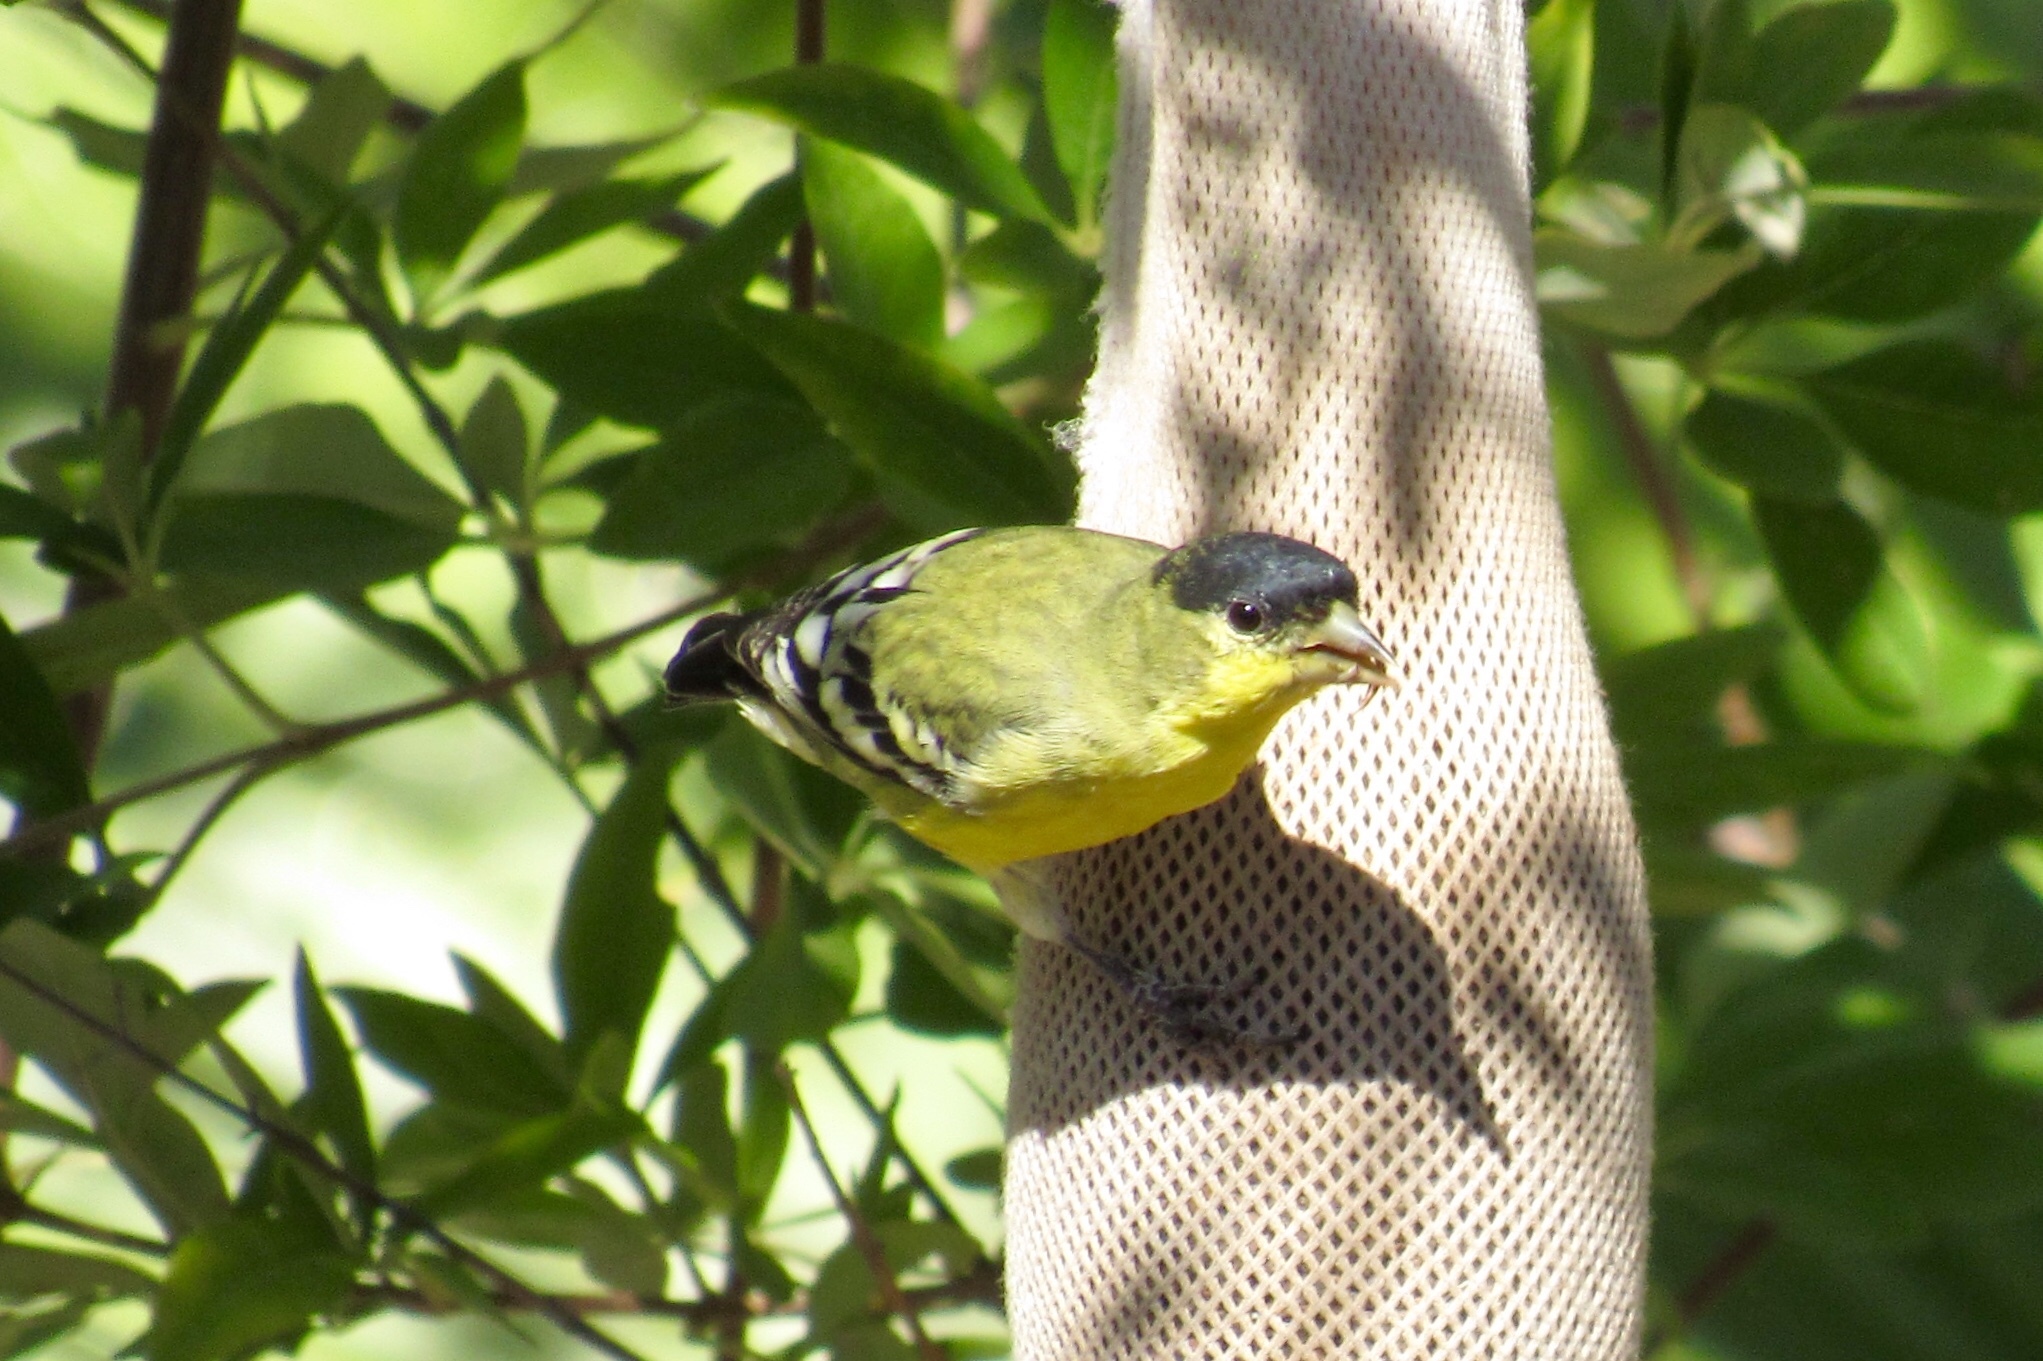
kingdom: Animalia
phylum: Chordata
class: Aves
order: Passeriformes
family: Fringillidae
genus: Spinus
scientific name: Spinus psaltria
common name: Lesser goldfinch
